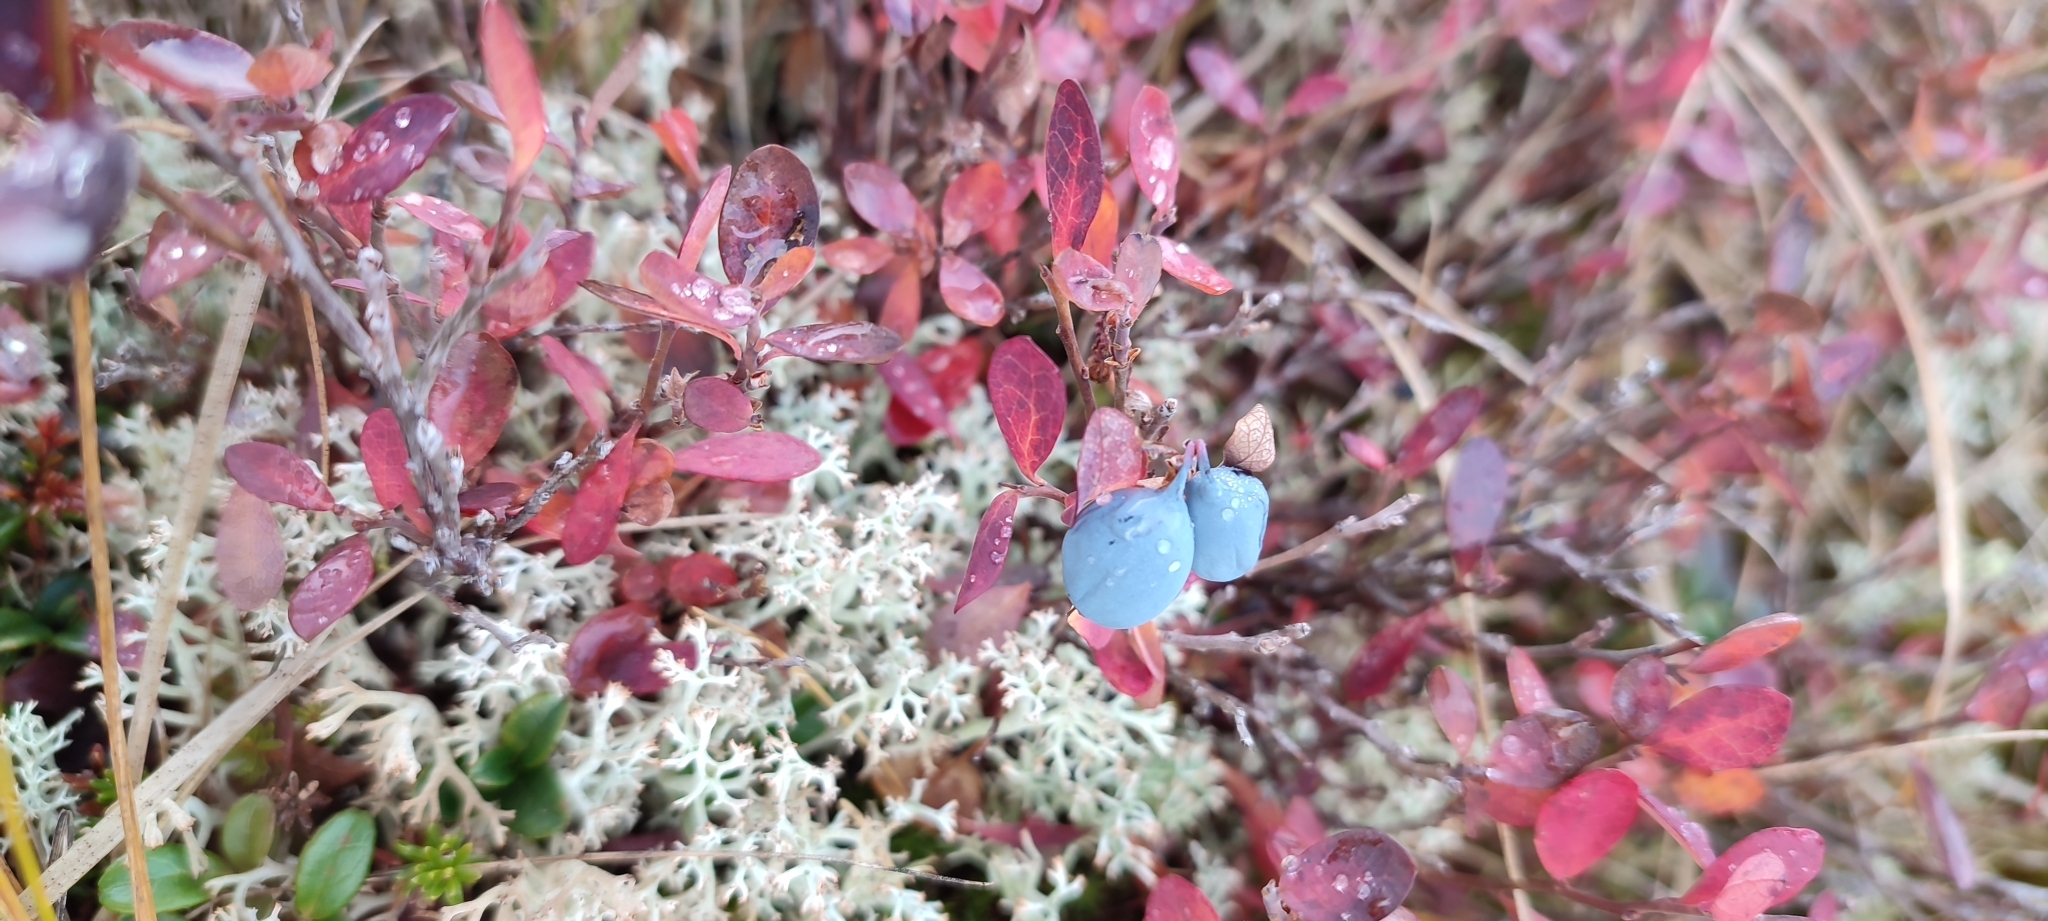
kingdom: Plantae
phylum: Tracheophyta
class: Magnoliopsida
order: Ericales
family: Ericaceae
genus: Vaccinium
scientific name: Vaccinium uliginosum
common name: Bog bilberry
